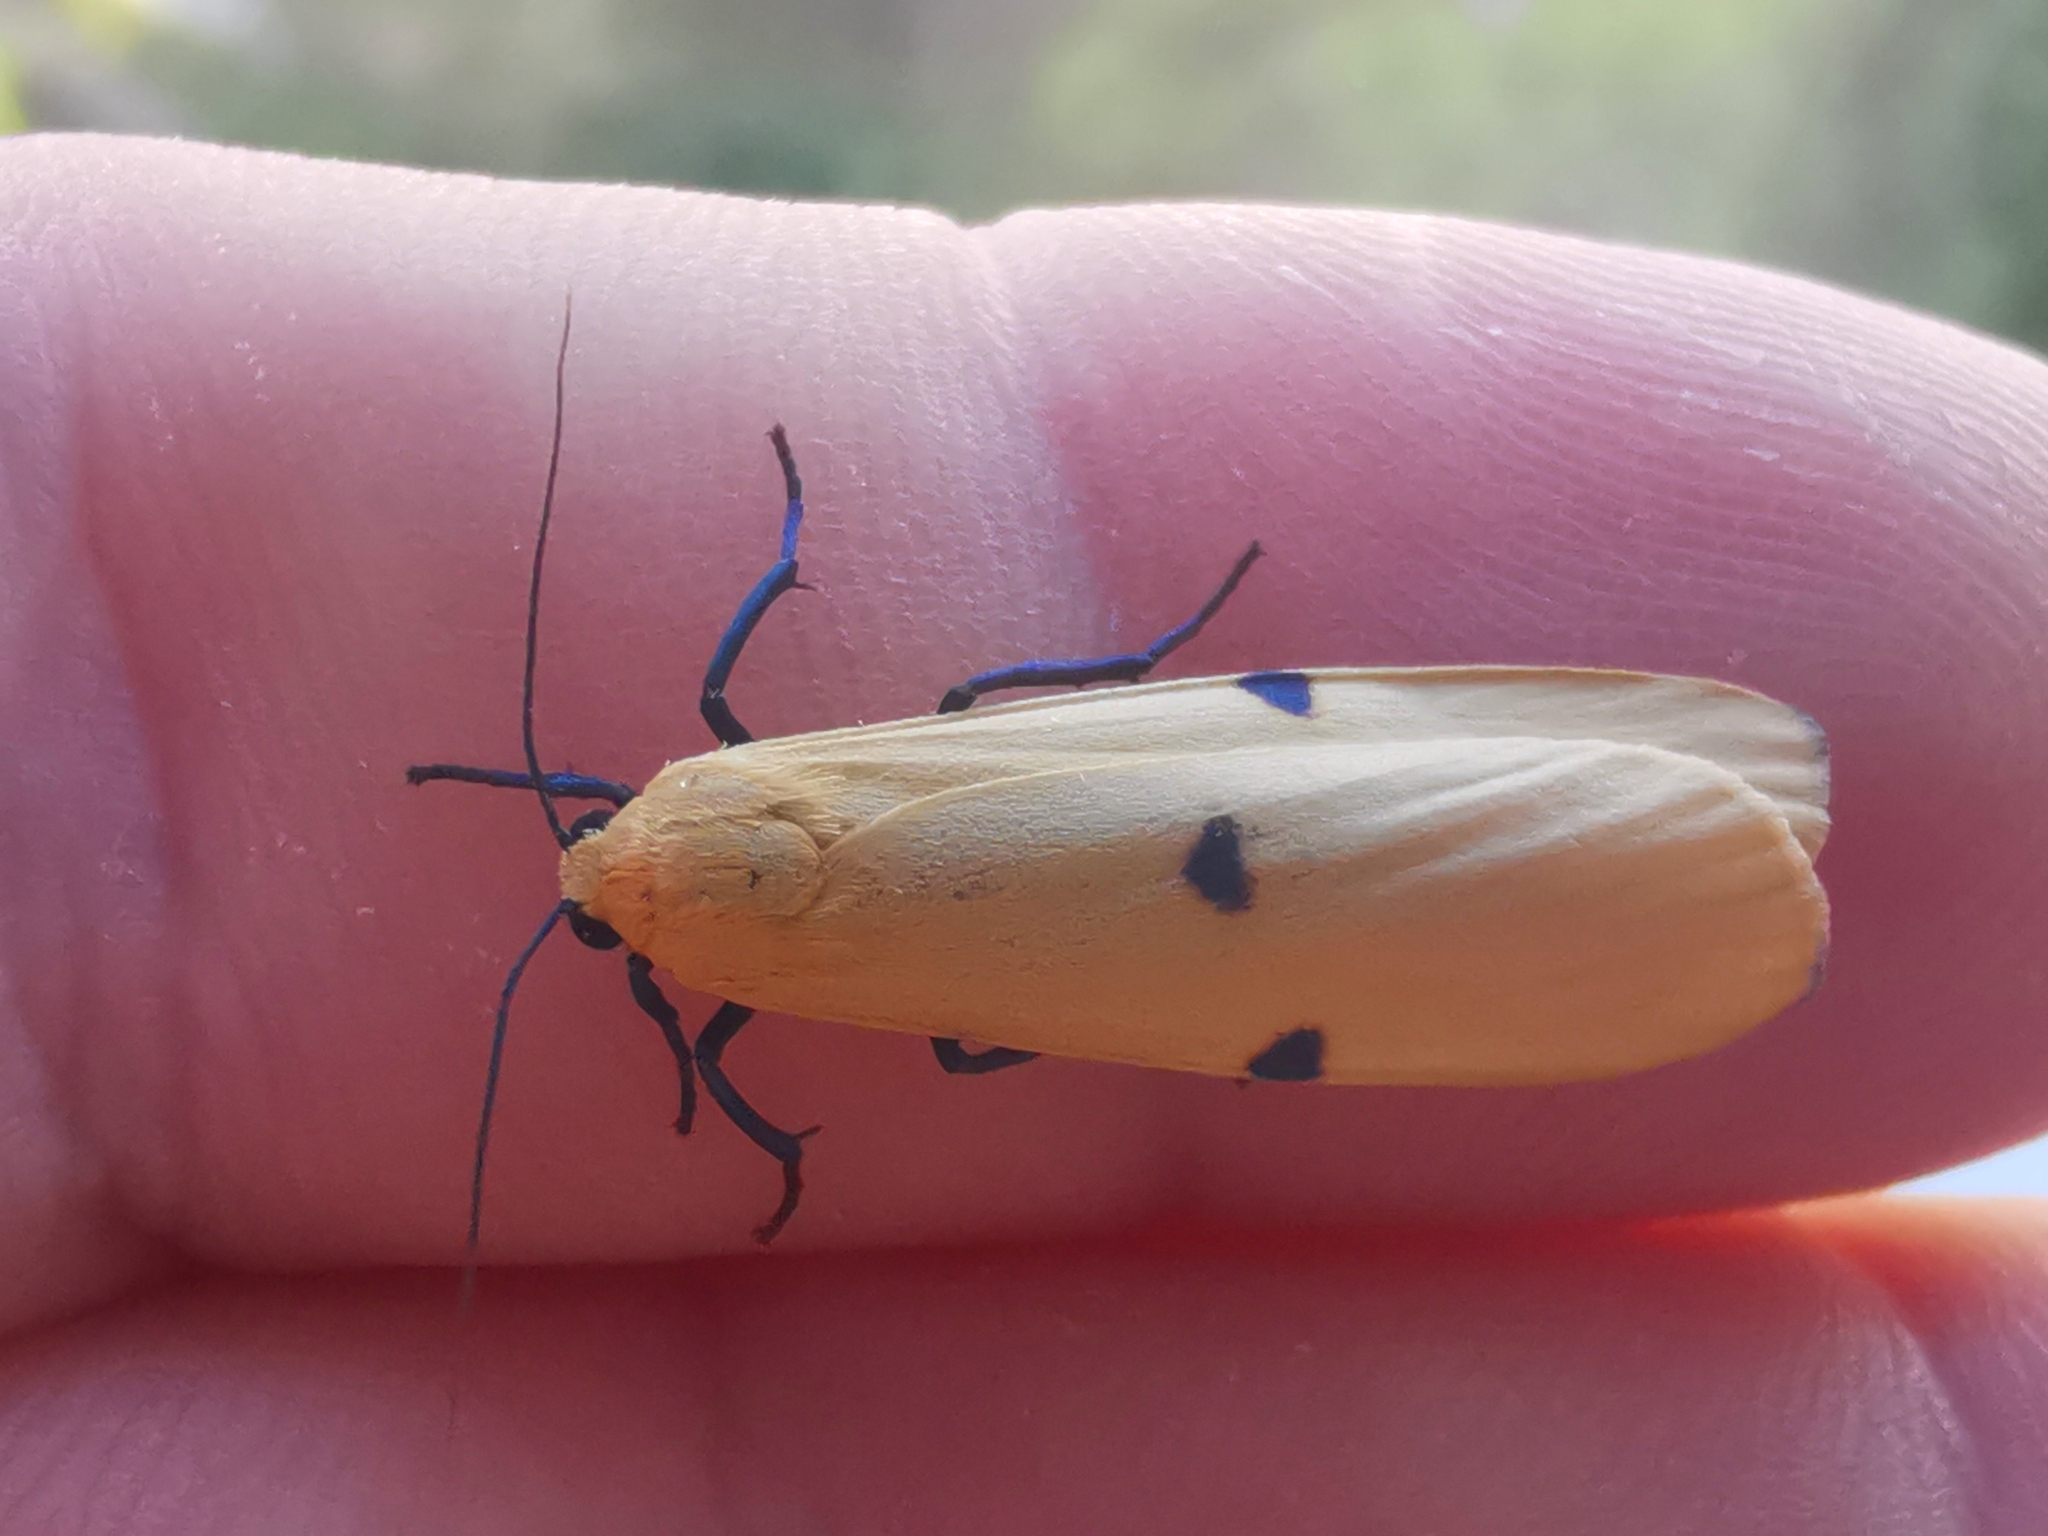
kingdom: Animalia
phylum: Arthropoda
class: Insecta
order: Lepidoptera
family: Erebidae
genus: Lithosia
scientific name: Lithosia quadra
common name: Four-spotted footman
